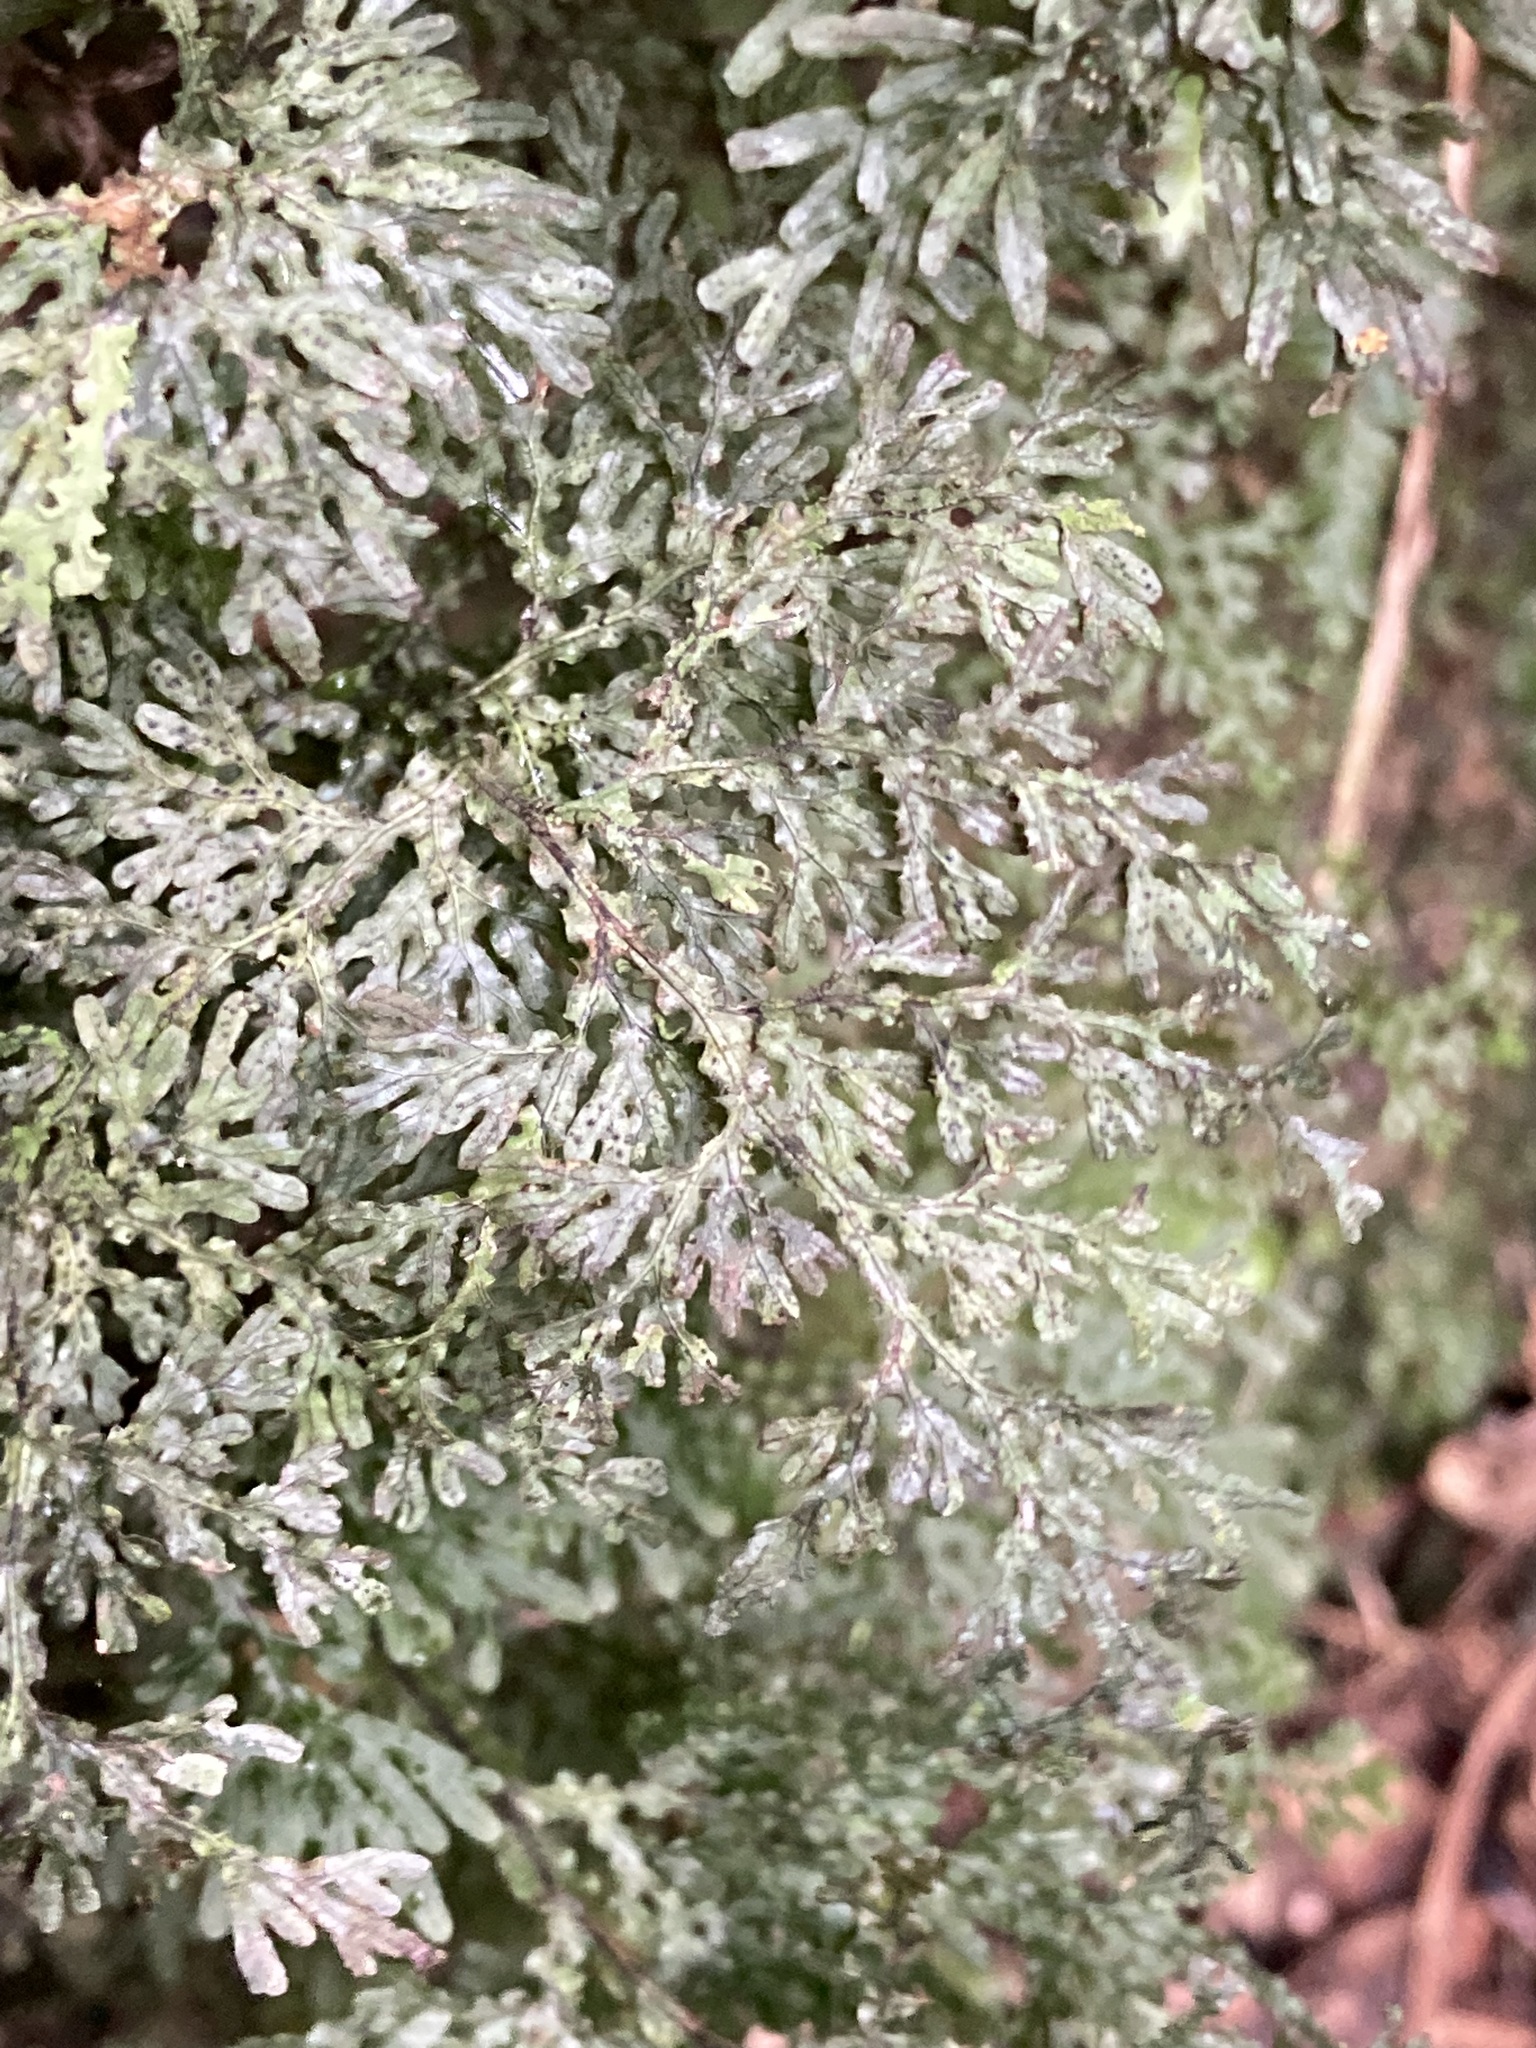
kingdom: Plantae
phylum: Tracheophyta
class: Polypodiopsida
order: Hymenophyllales
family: Hymenophyllaceae
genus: Hymenophyllum
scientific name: Hymenophyllum flexuosum
